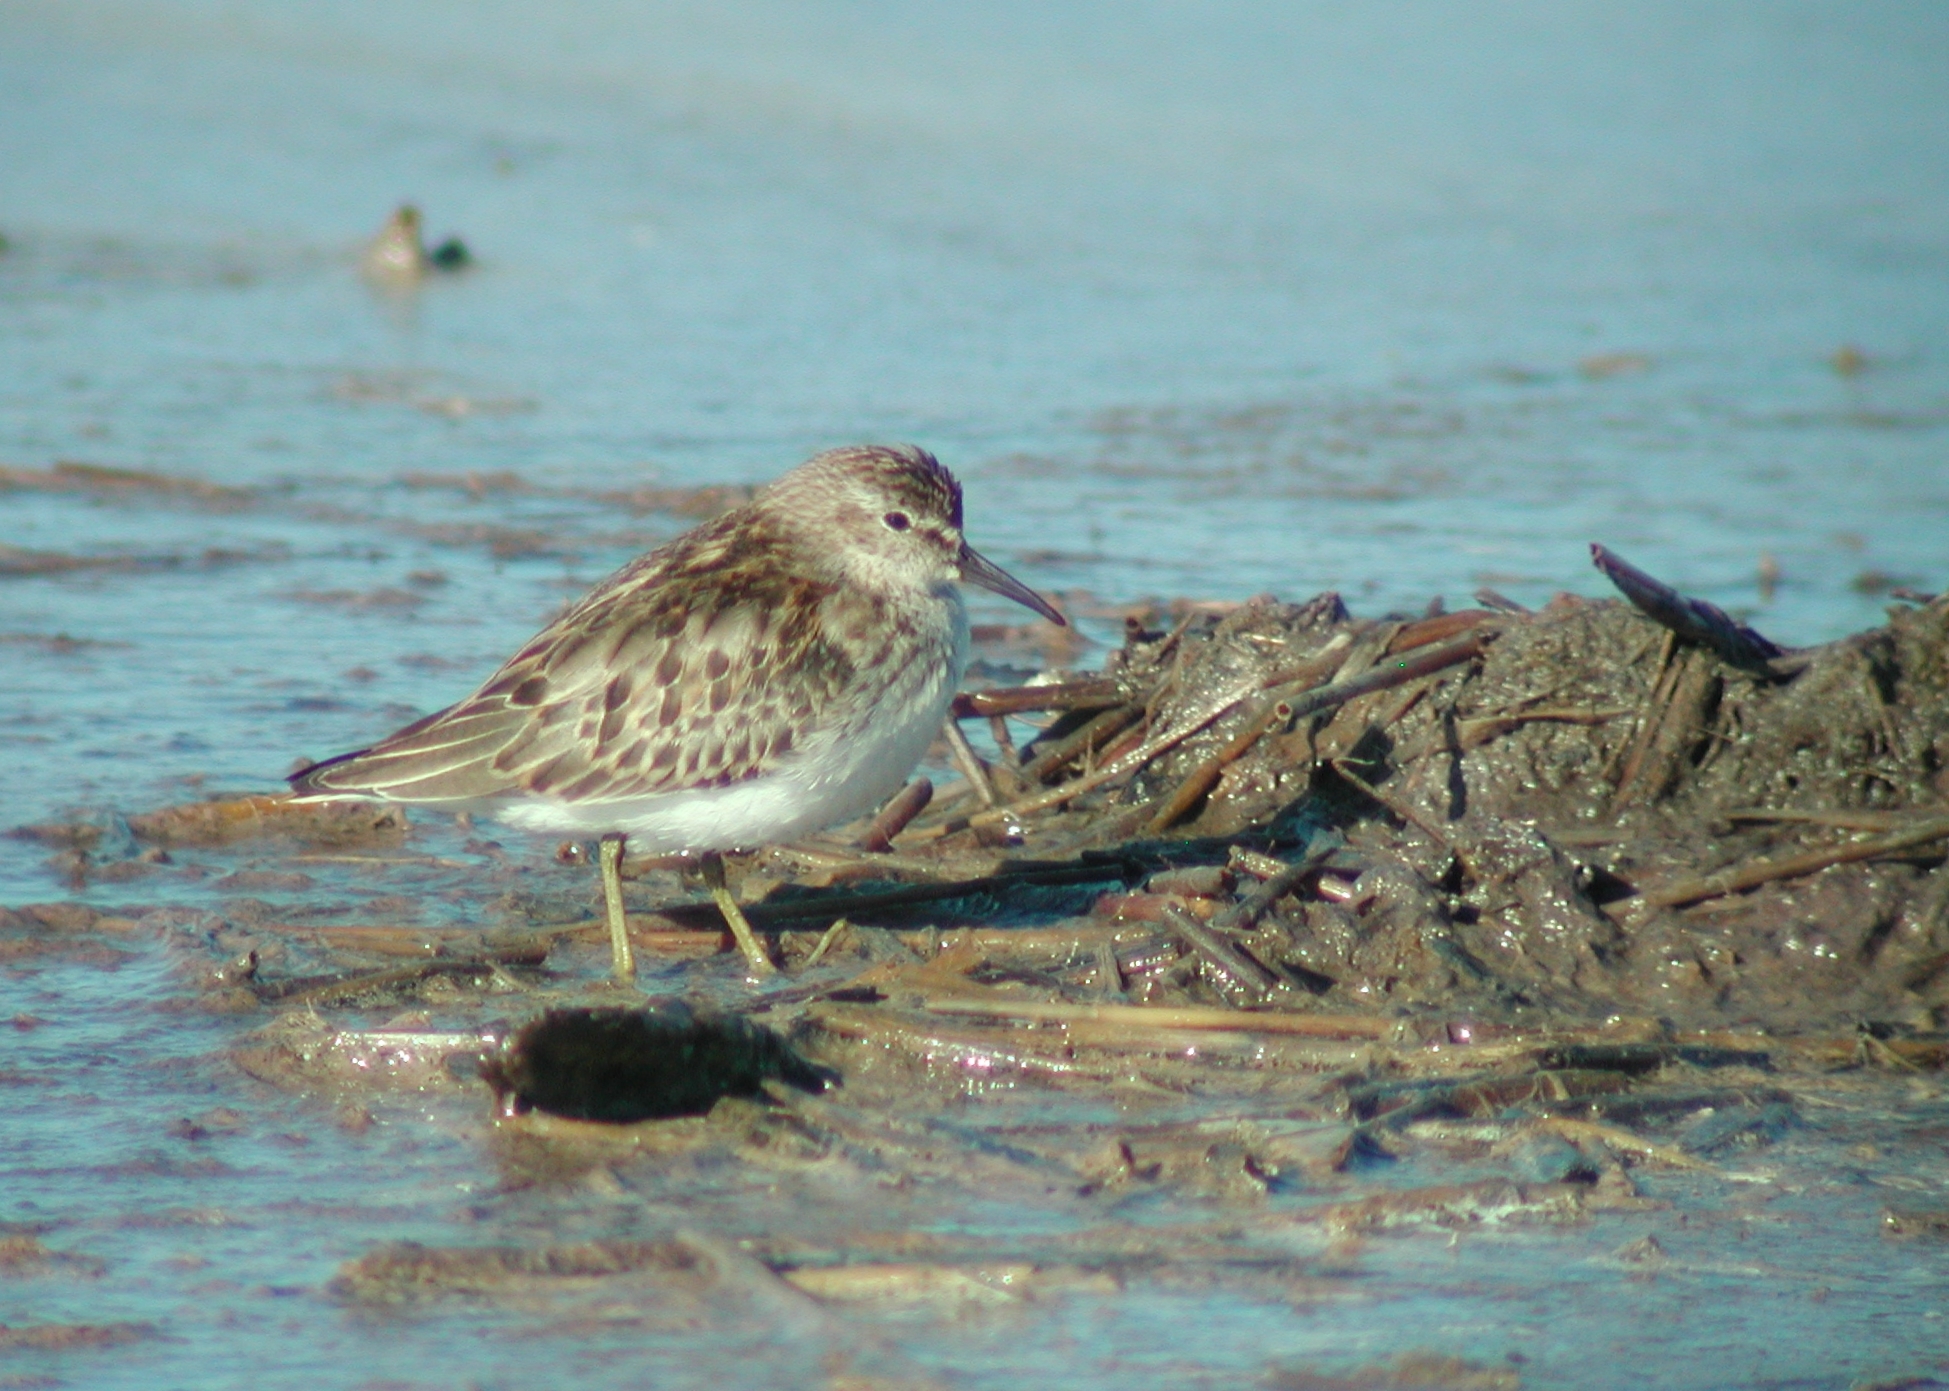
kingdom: Animalia
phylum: Chordata
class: Aves
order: Charadriiformes
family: Scolopacidae
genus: Calidris
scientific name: Calidris minutilla
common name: Least sandpiper
